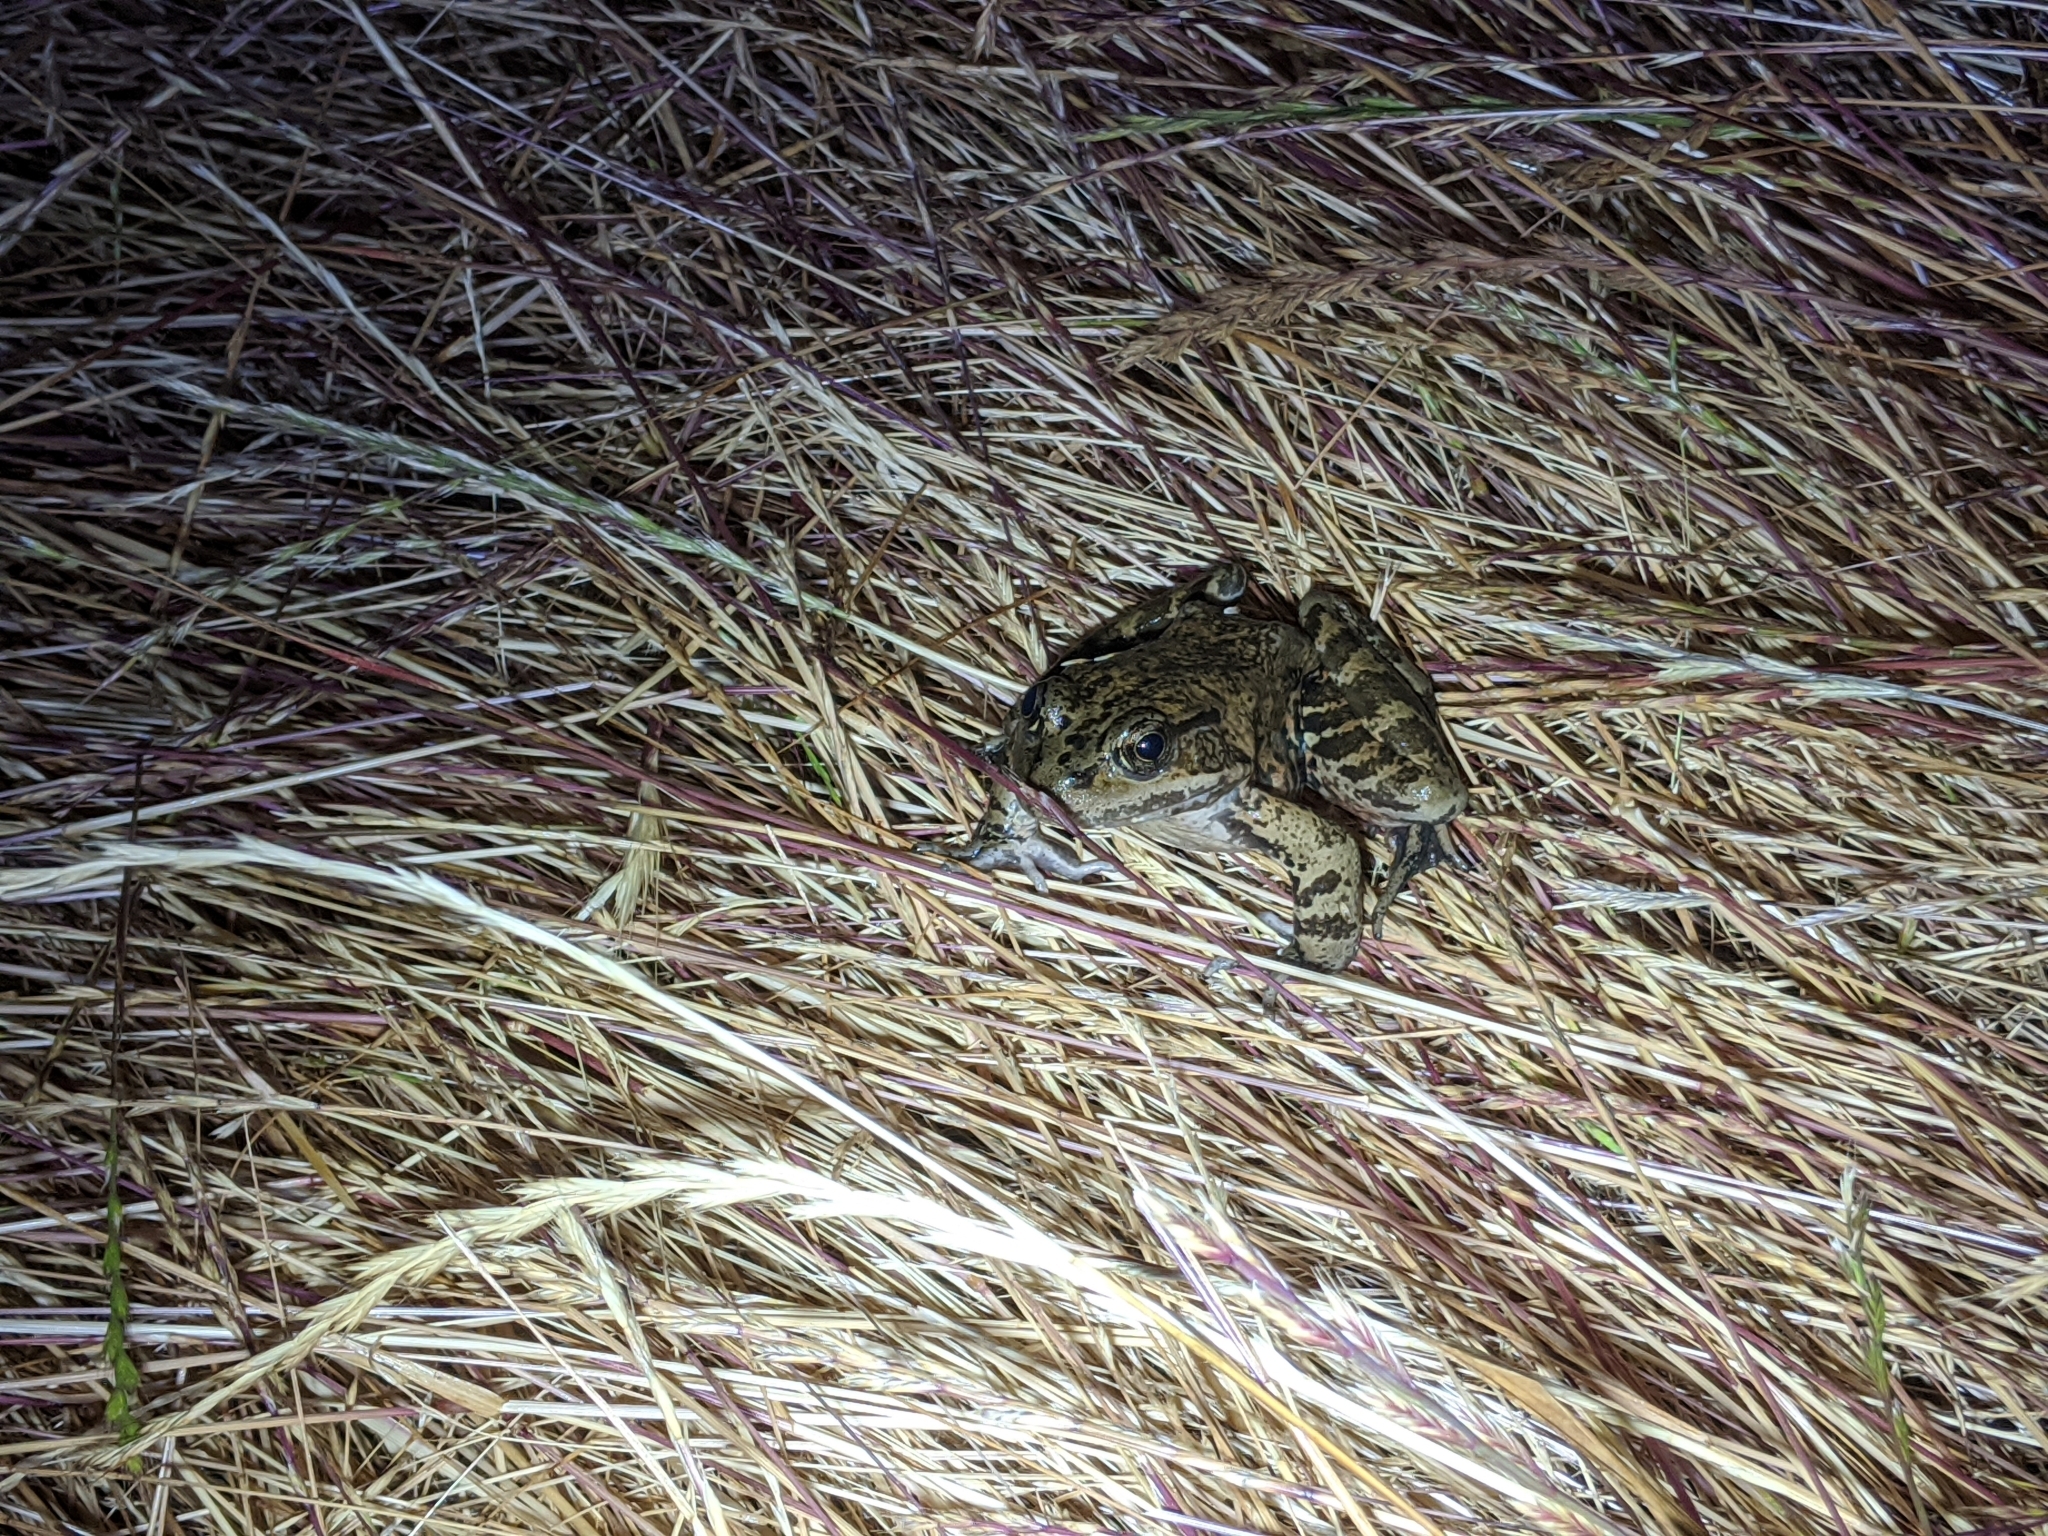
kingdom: Animalia
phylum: Chordata
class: Amphibia
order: Anura
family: Ranidae
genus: Rana
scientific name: Rana draytonii
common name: California red-legged frog
